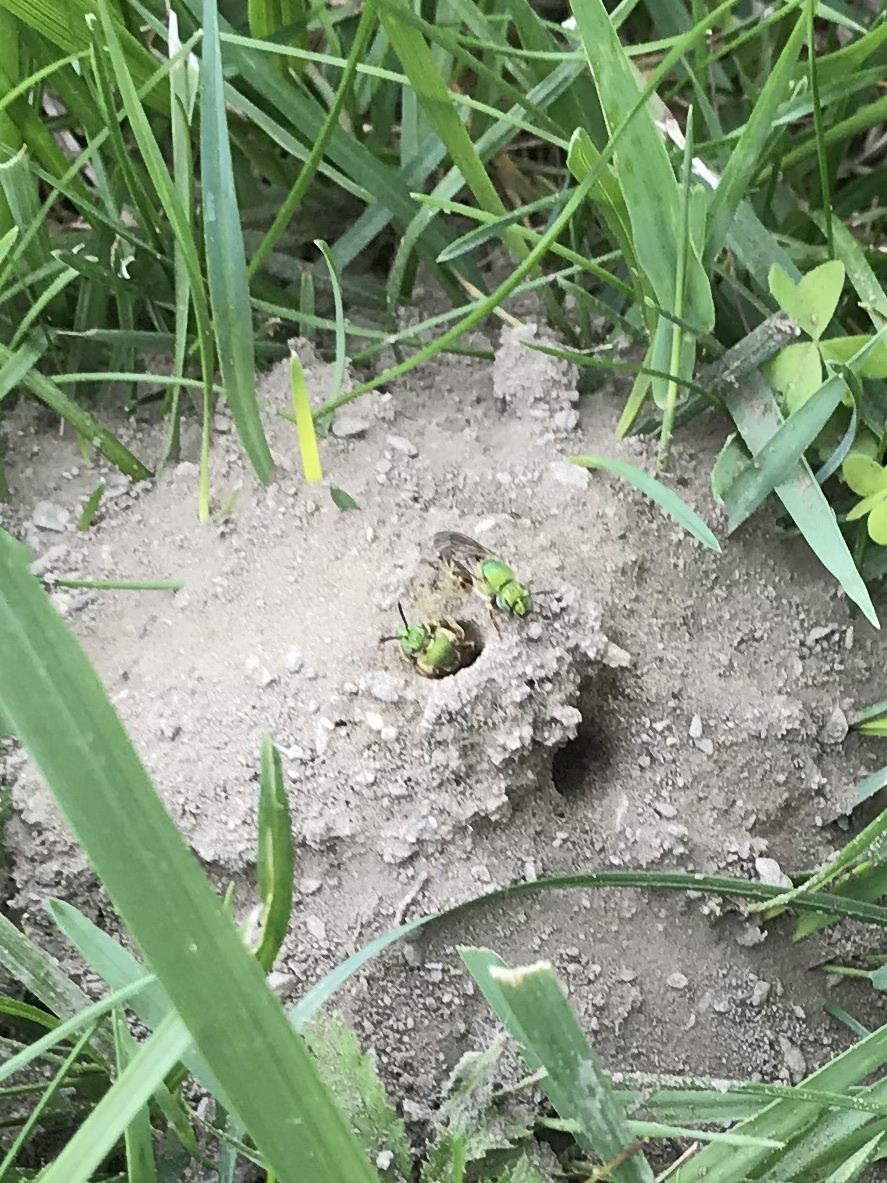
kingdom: Animalia
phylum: Arthropoda
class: Insecta
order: Hymenoptera
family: Halictidae
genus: Agapostemon
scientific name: Agapostemon virescens
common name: Bicolored striped sweat bee
